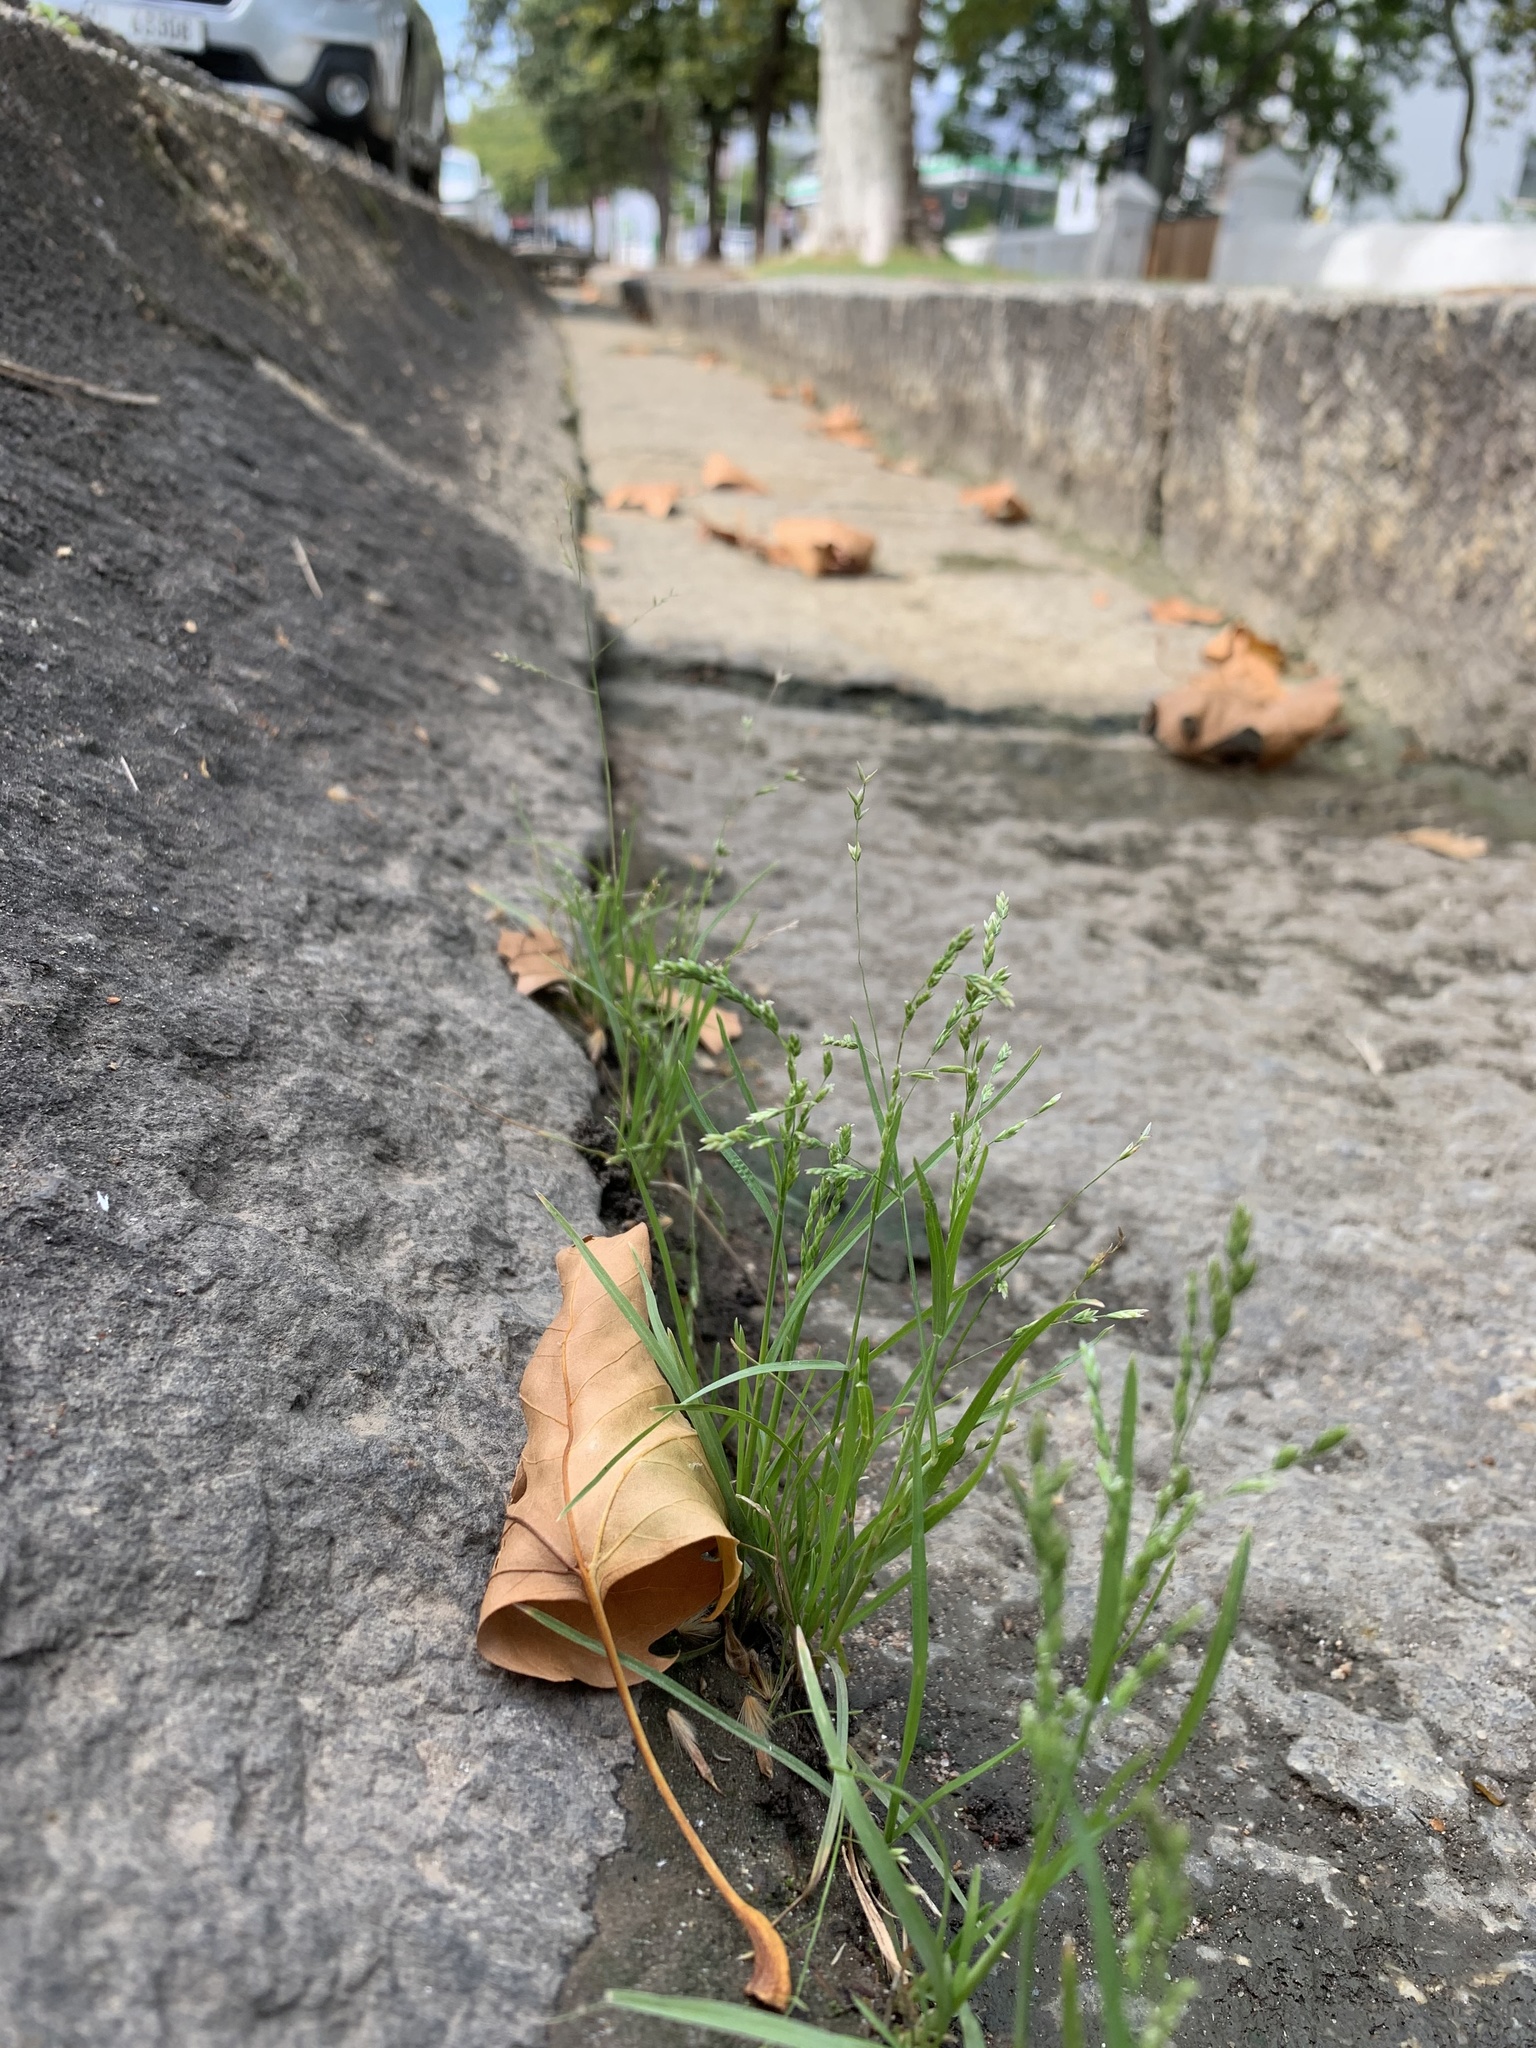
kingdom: Plantae
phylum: Tracheophyta
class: Liliopsida
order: Poales
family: Poaceae
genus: Poa
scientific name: Poa annua
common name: Annual bluegrass
